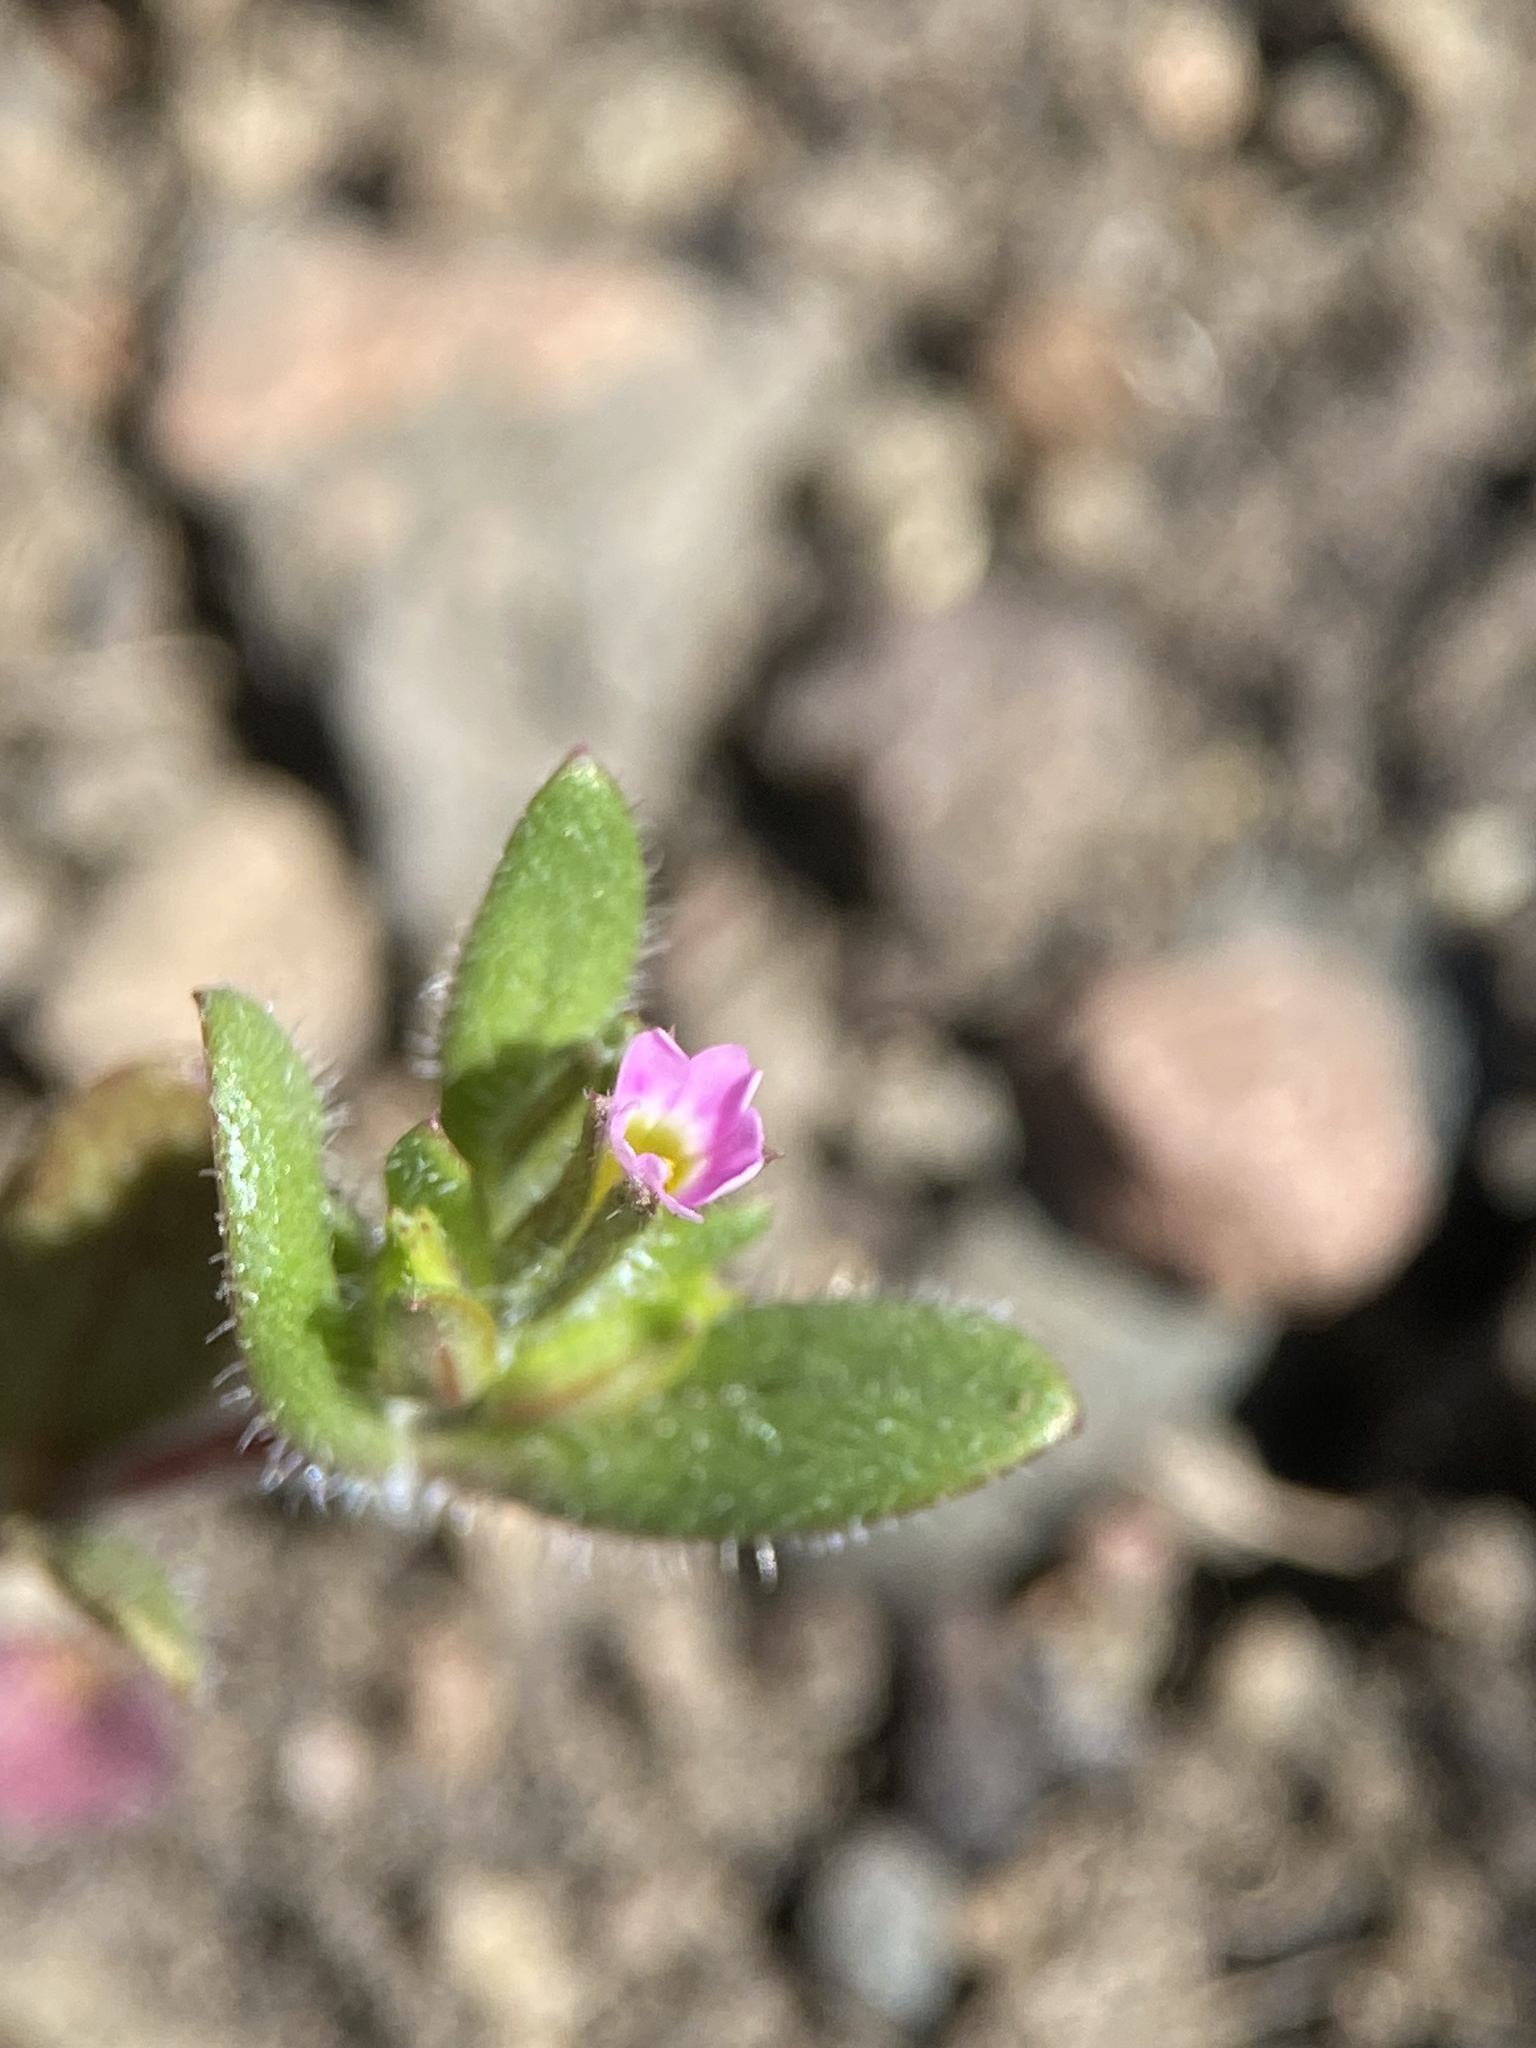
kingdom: Plantae
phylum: Tracheophyta
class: Magnoliopsida
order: Ericales
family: Polemoniaceae
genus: Phlox
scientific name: Phlox gracilis
